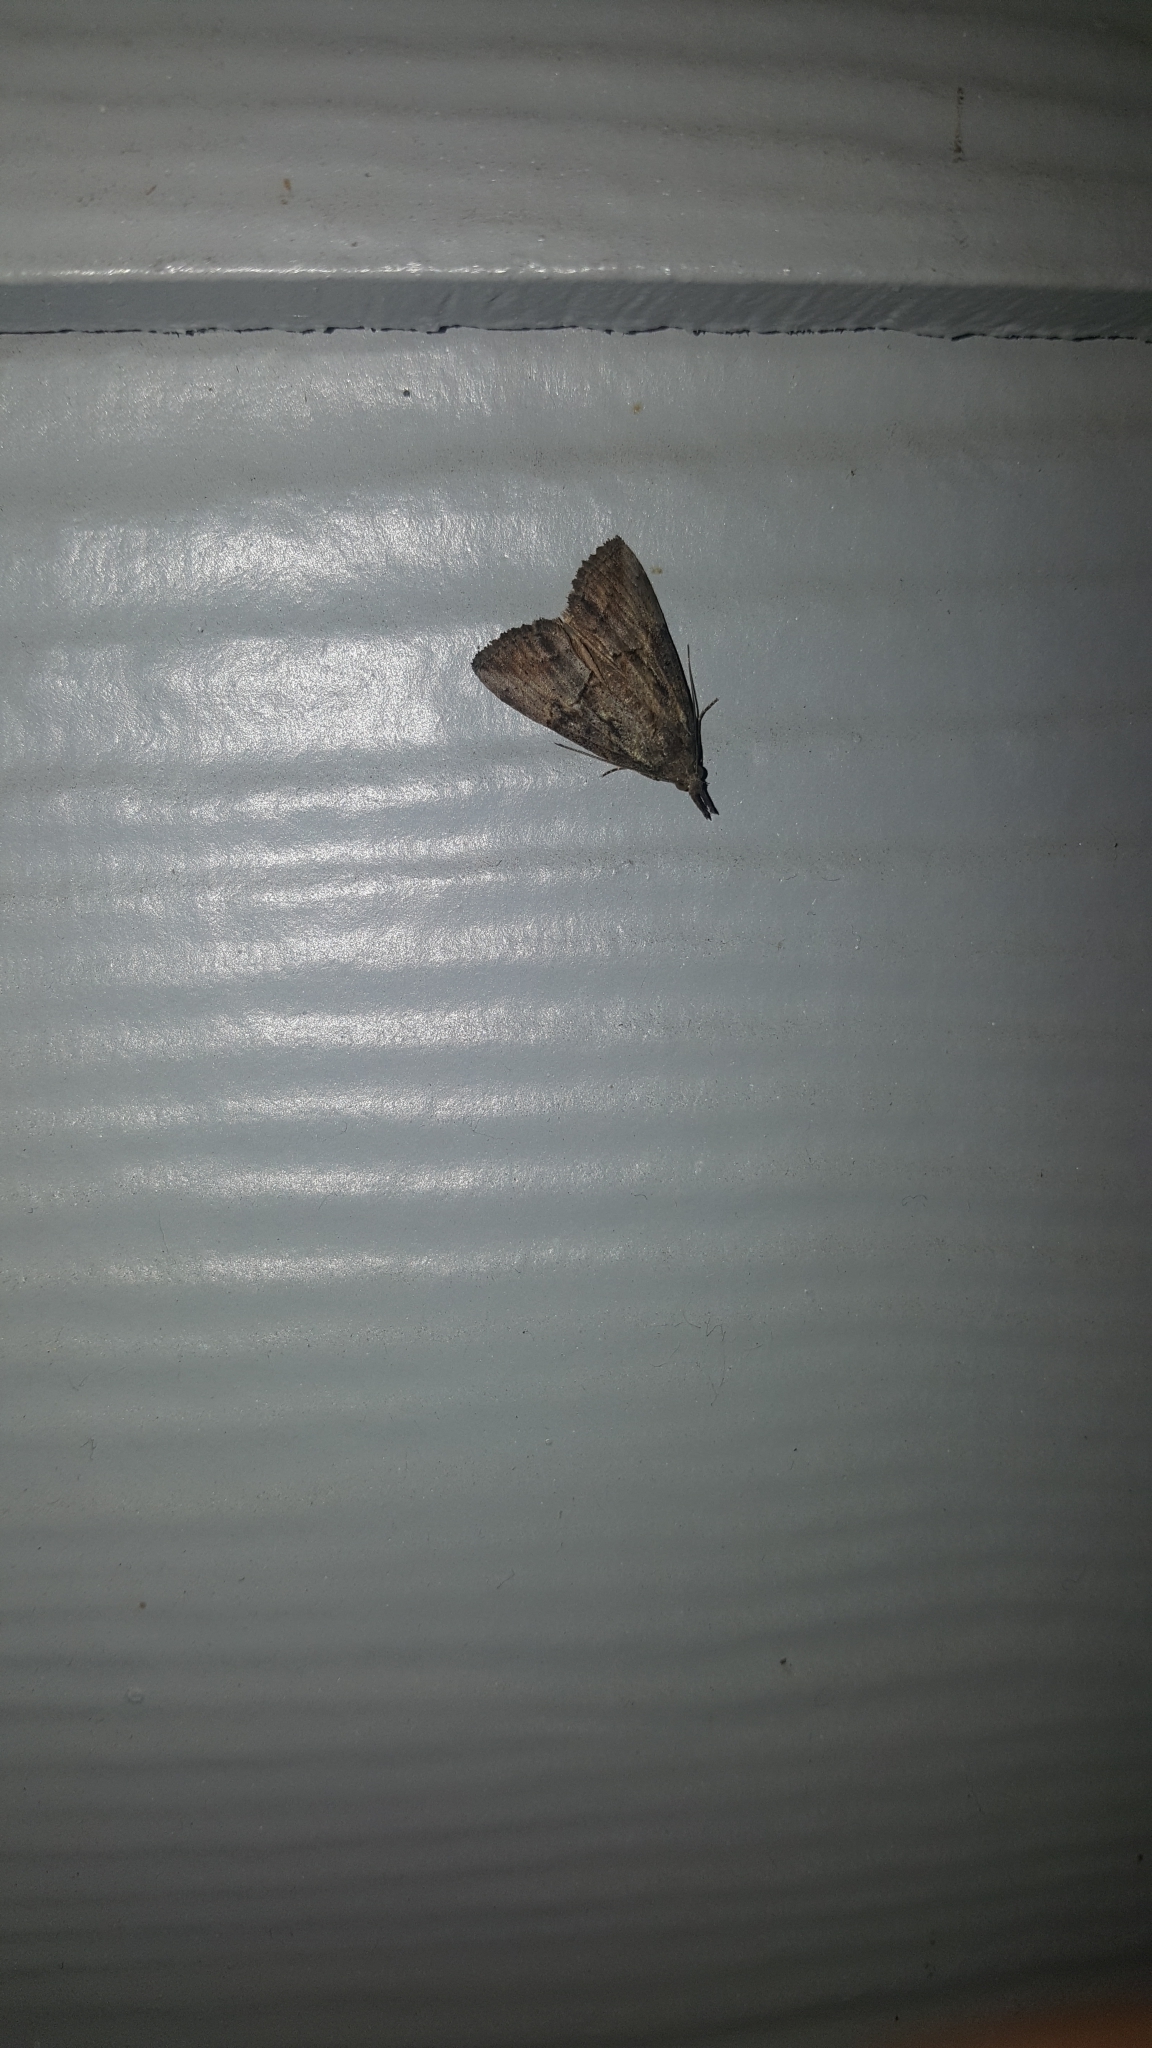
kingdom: Animalia
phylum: Arthropoda
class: Insecta
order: Lepidoptera
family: Erebidae
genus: Hypena
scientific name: Hypena scabra
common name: Green cloverworm
